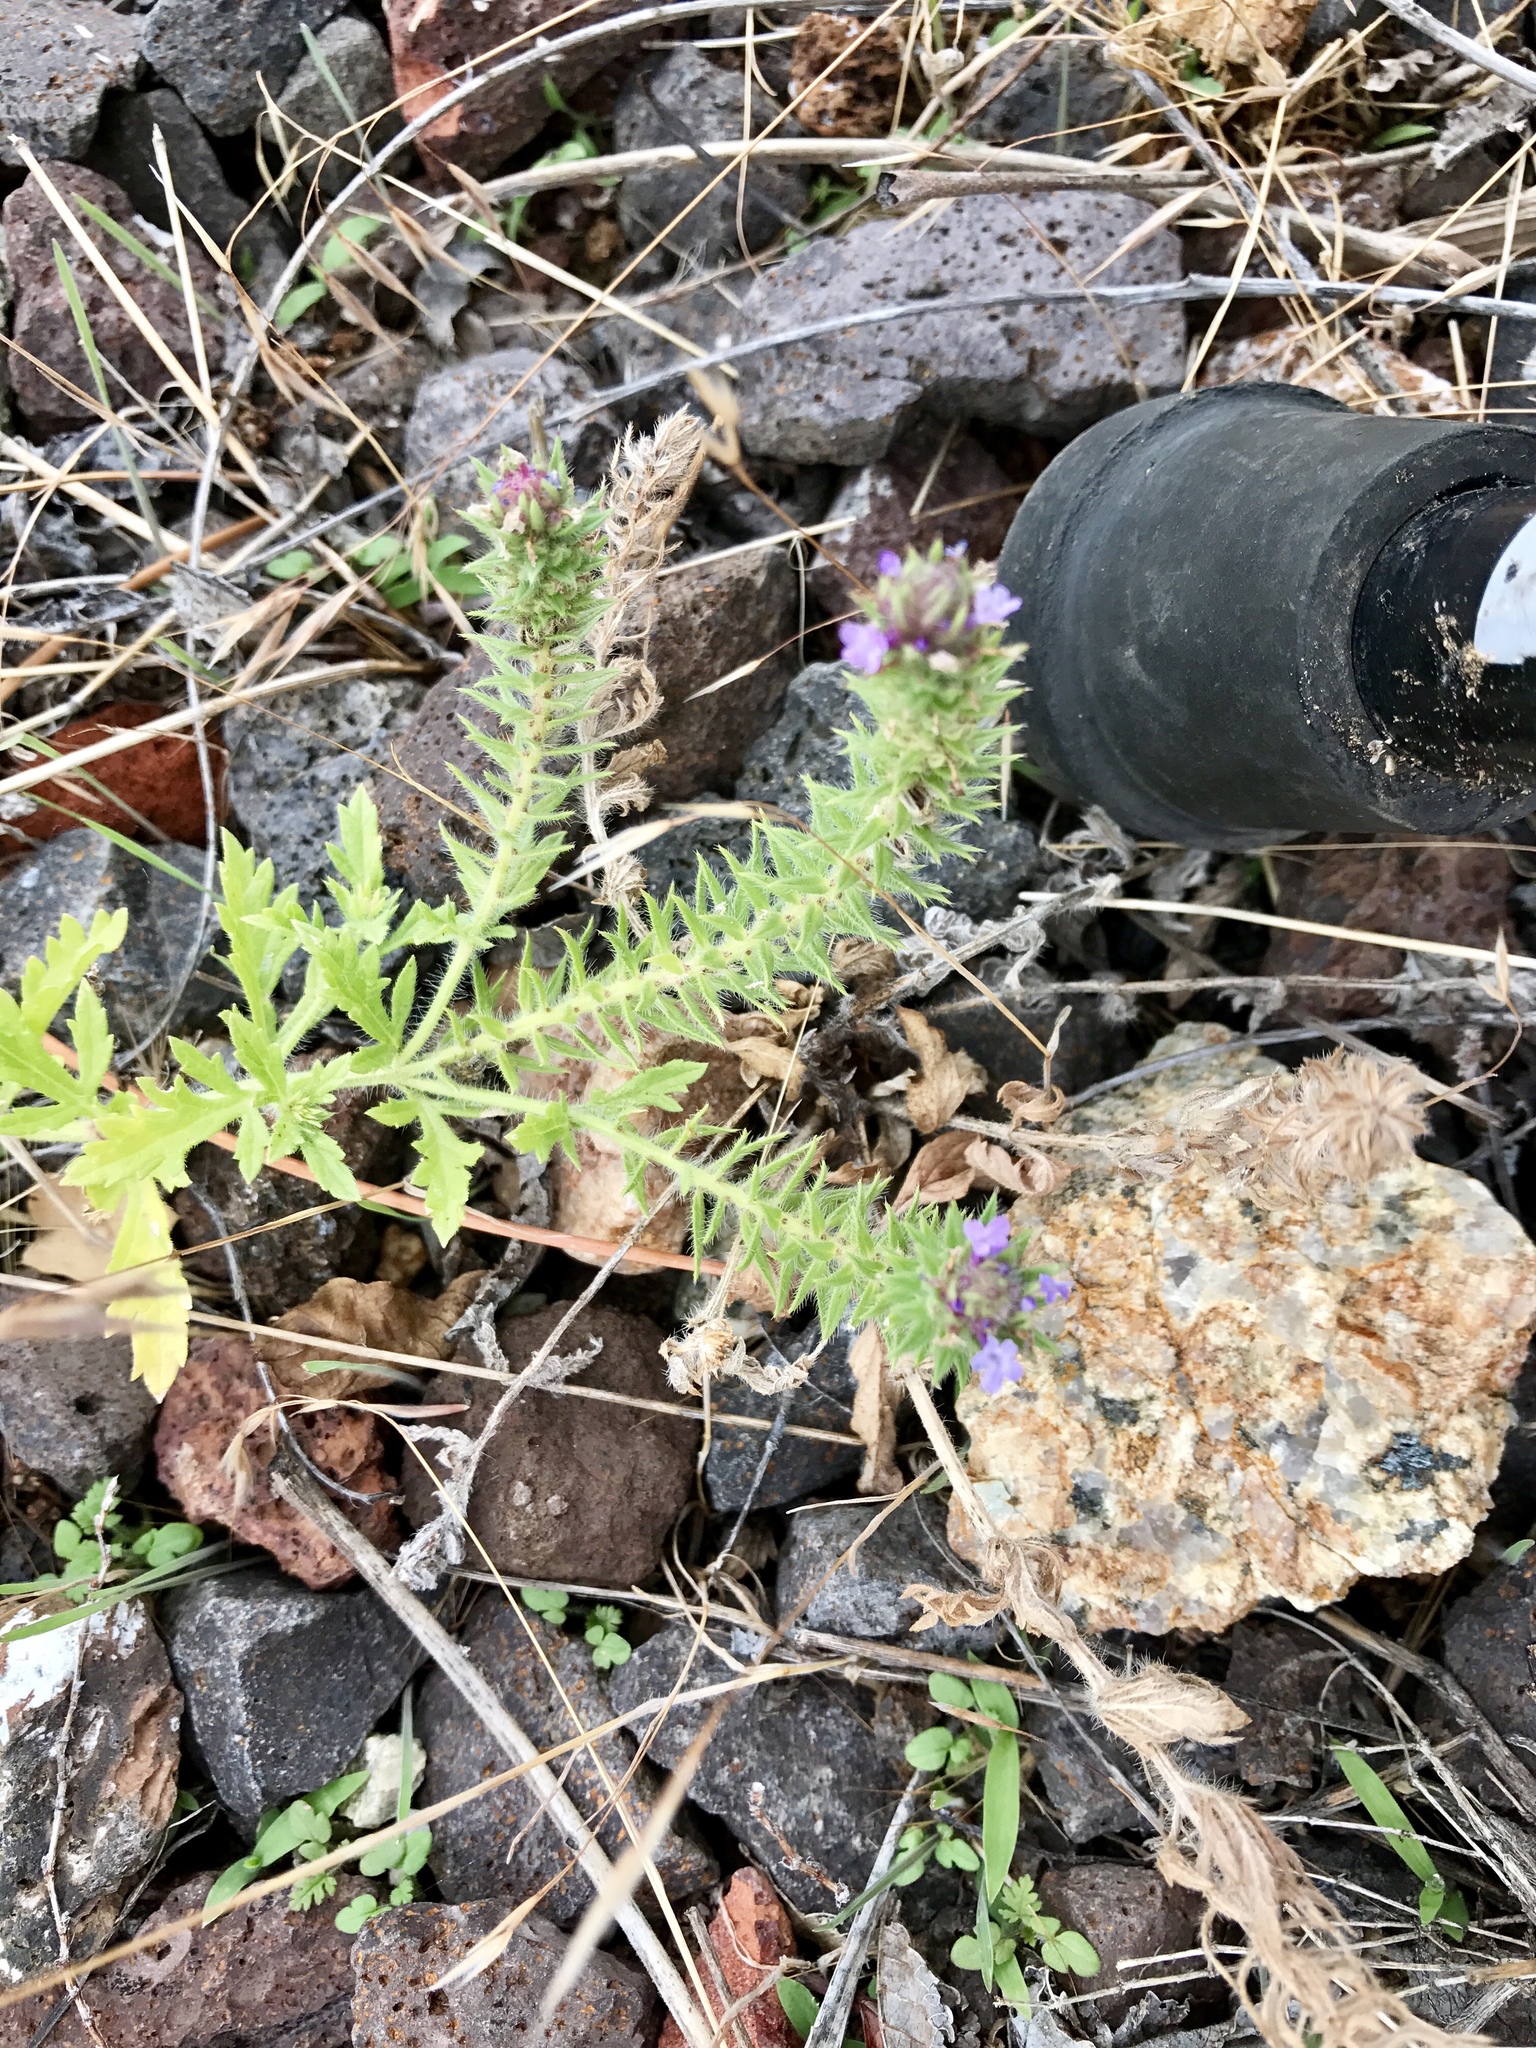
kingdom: Plantae
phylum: Tracheophyta
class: Magnoliopsida
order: Lamiales
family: Verbenaceae
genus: Verbena
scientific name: Verbena bracteata
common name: Bracted vervain
